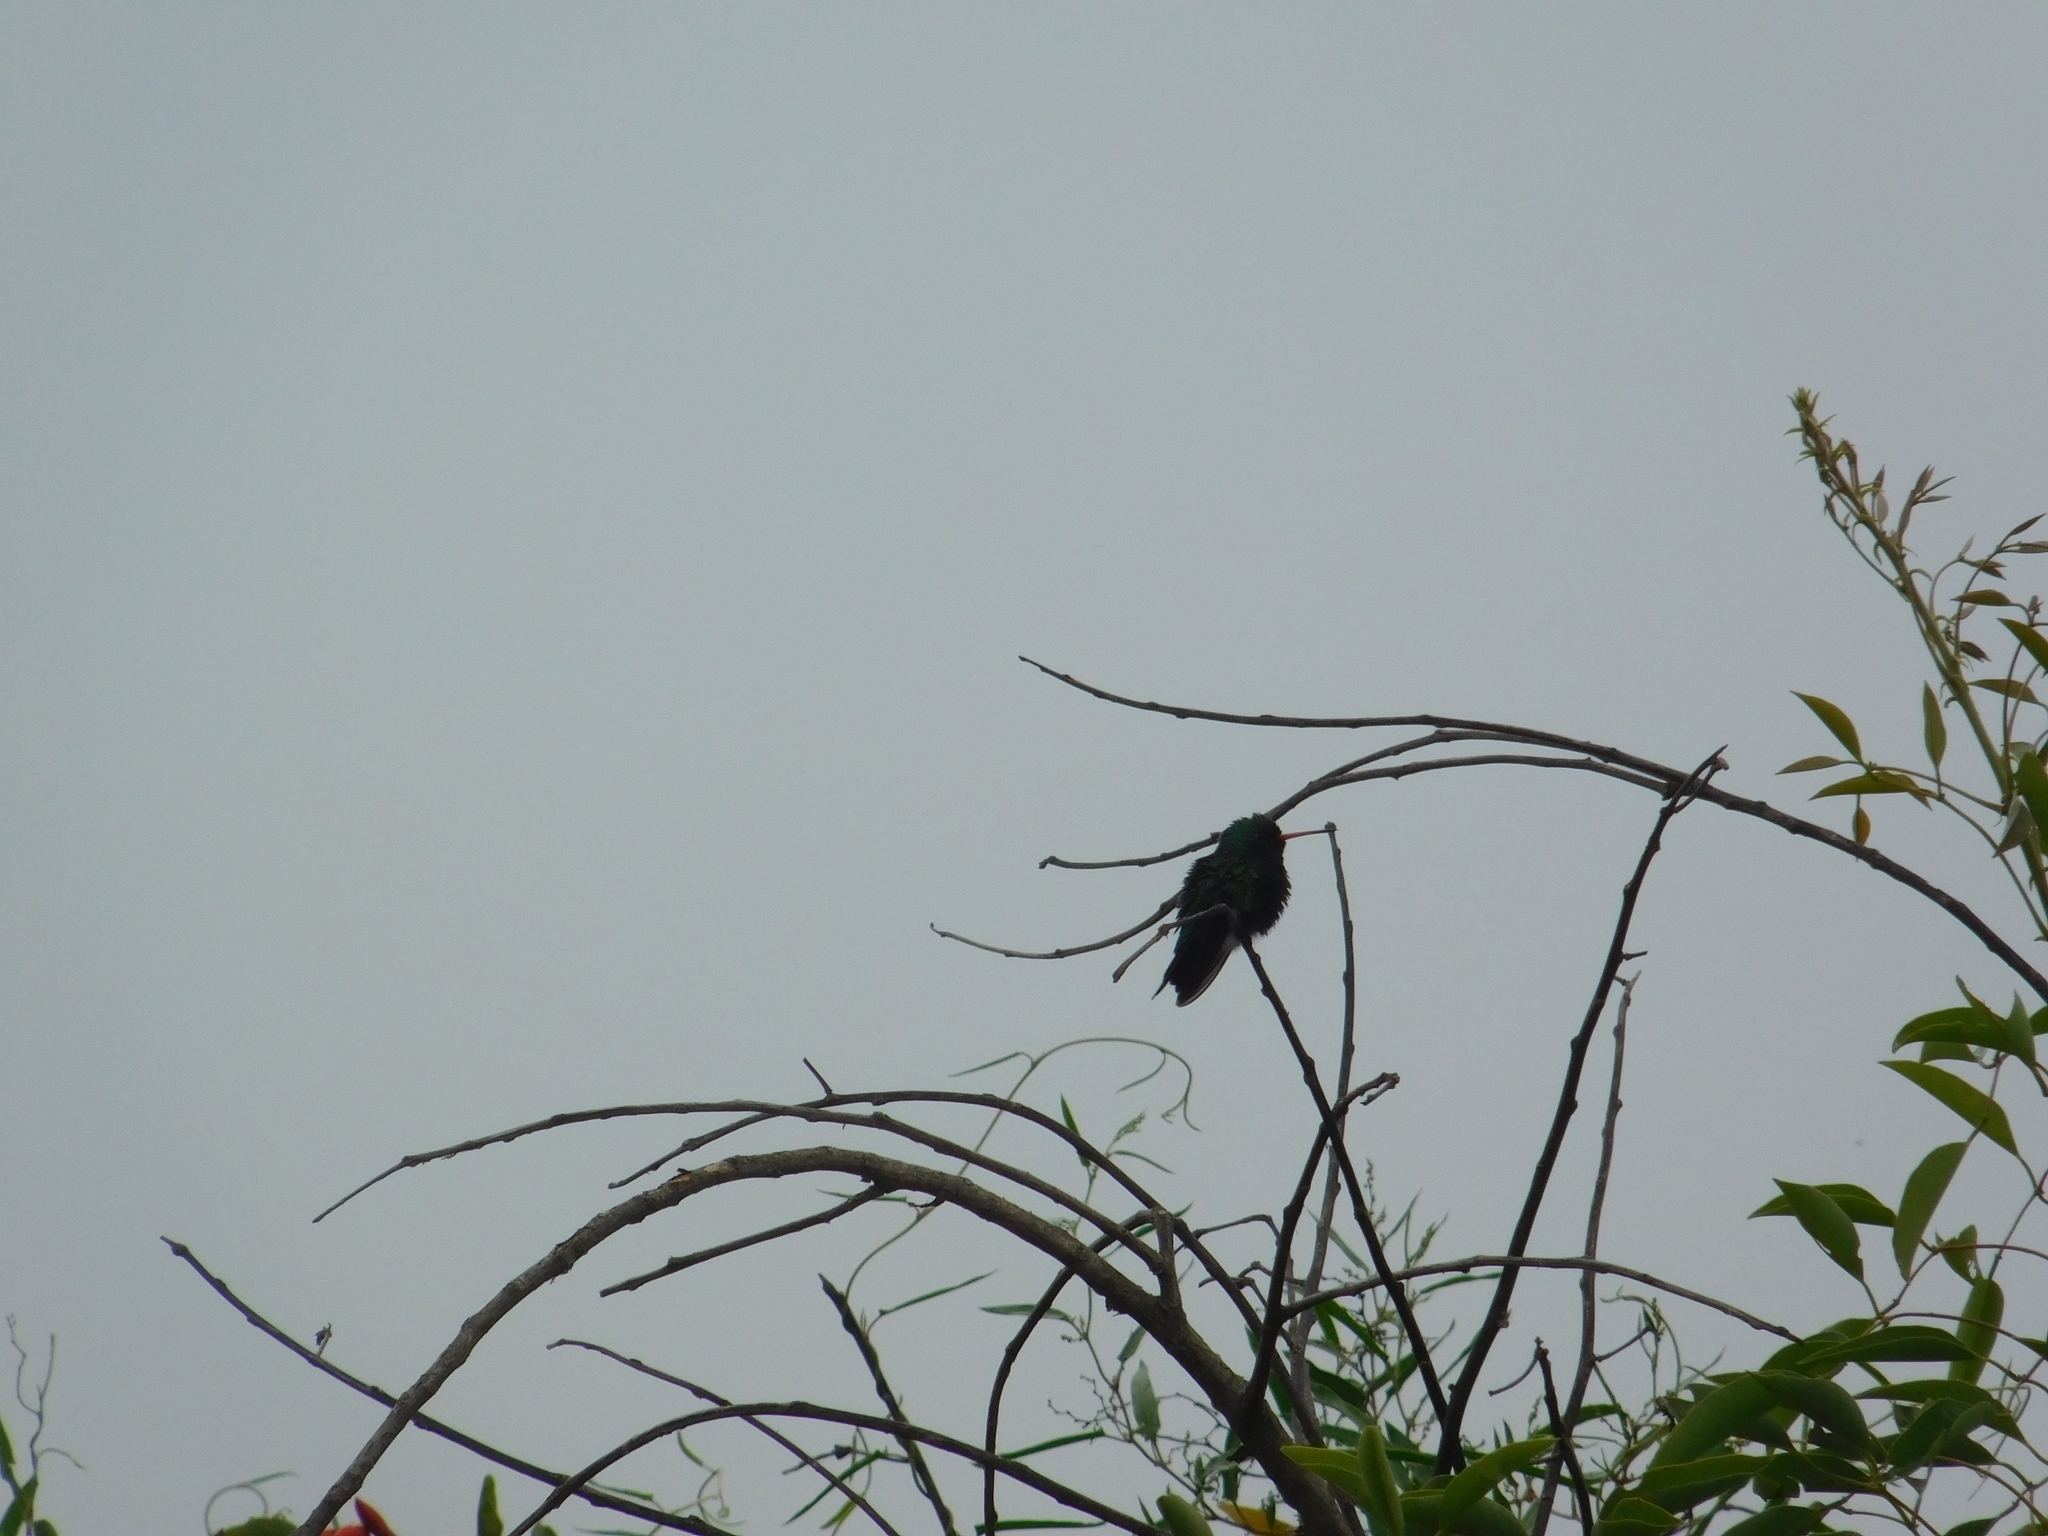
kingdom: Animalia
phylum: Chordata
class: Aves
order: Apodiformes
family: Trochilidae
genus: Chlorostilbon
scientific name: Chlorostilbon lucidus
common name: Glittering-bellied emerald
